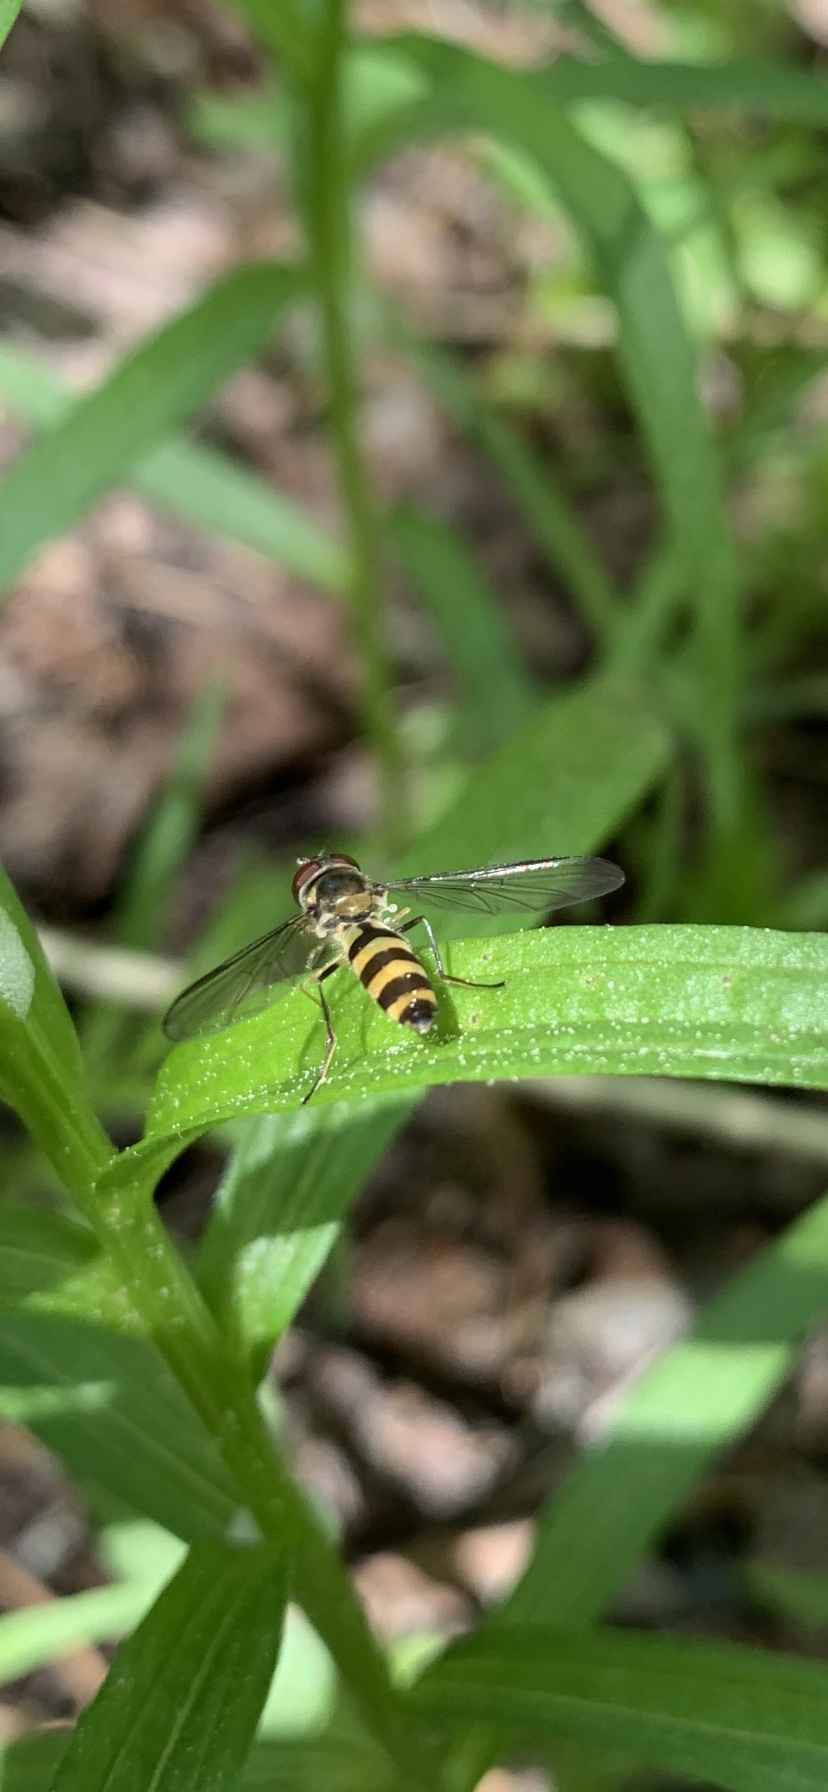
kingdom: Animalia
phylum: Arthropoda
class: Insecta
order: Diptera
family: Syrphidae
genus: Meliscaeva
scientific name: Meliscaeva cinctella
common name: American thintail fly
